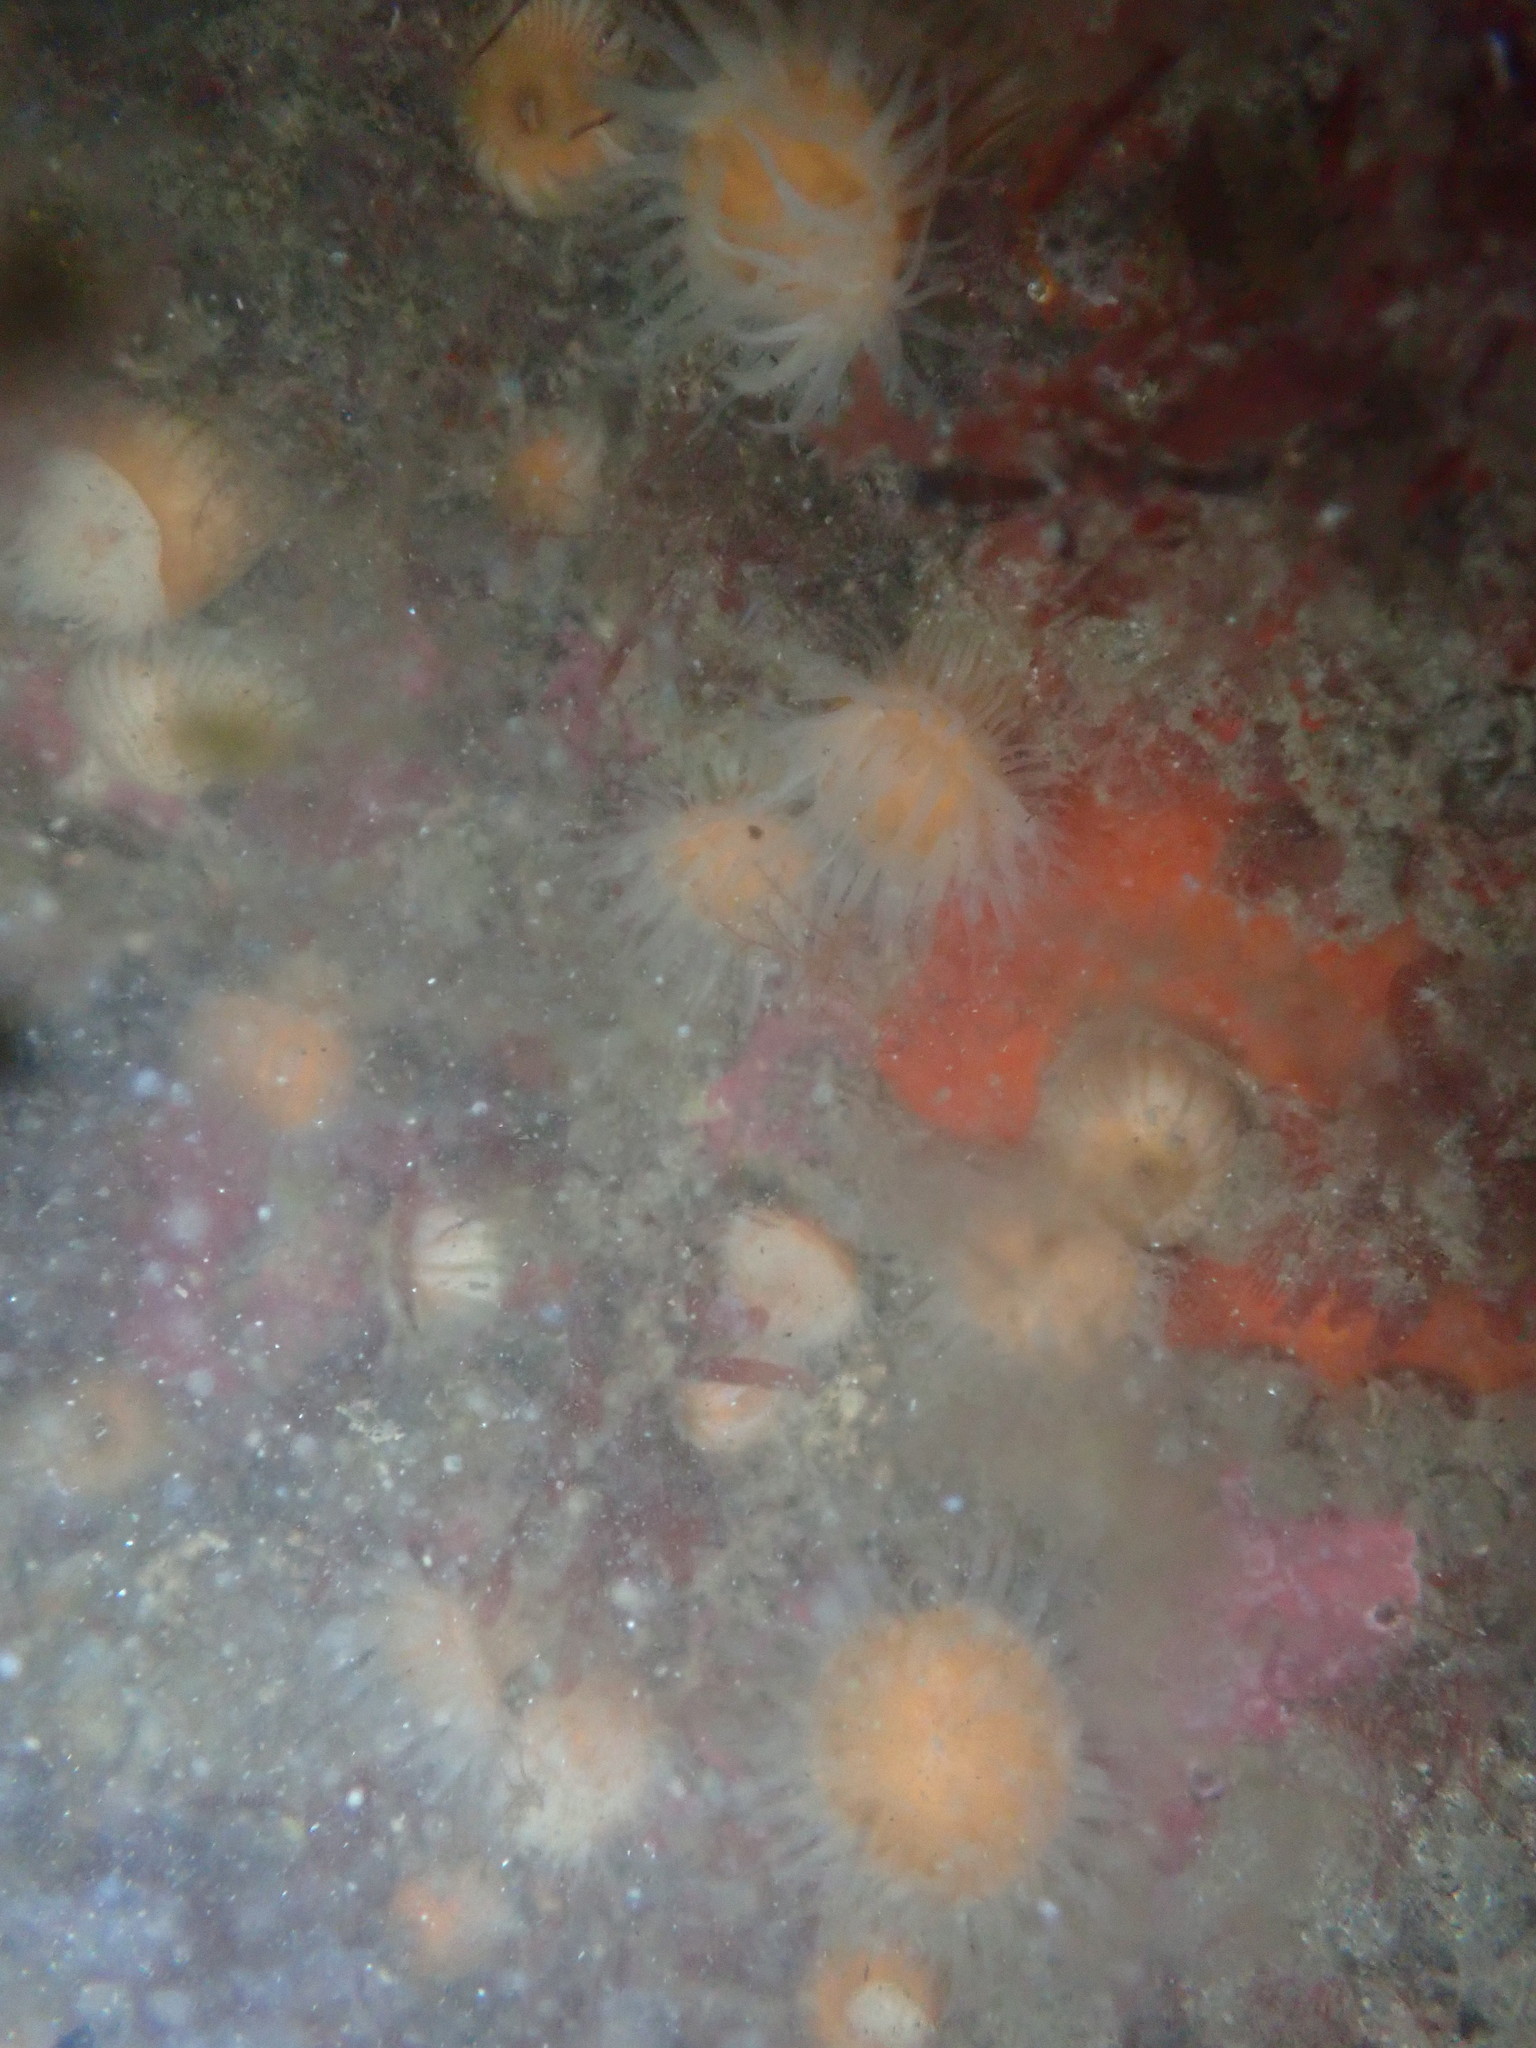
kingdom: Animalia
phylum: Cnidaria
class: Anthozoa
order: Actiniaria
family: Sagartiidae
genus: Anthothoe
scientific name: Anthothoe albocincta
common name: Orange striped anemone
